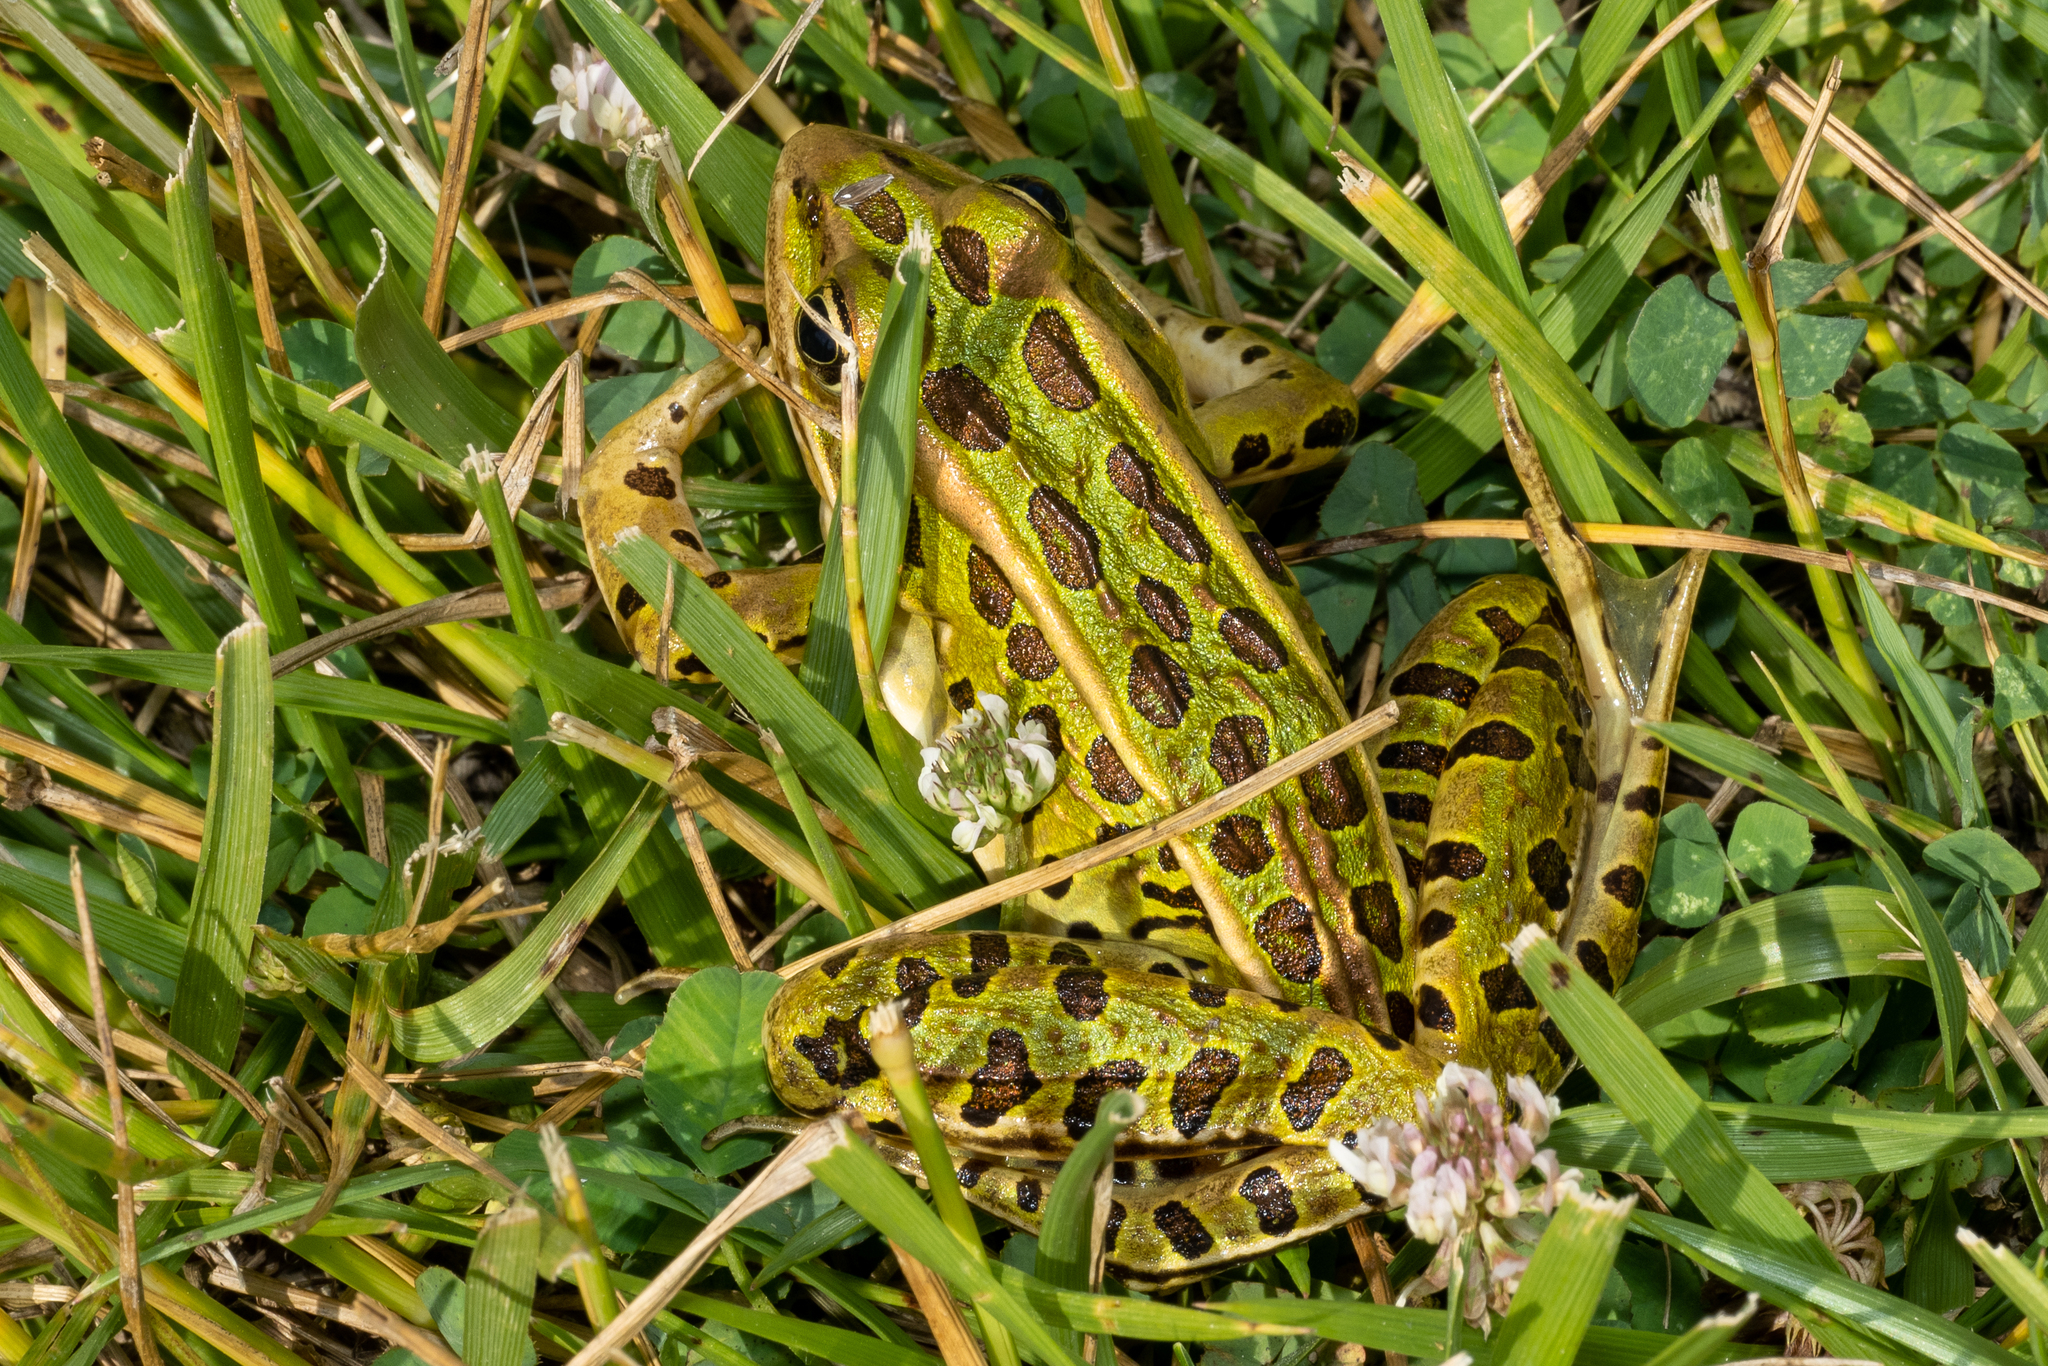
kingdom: Animalia
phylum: Chordata
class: Amphibia
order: Anura
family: Ranidae
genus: Lithobates
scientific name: Lithobates pipiens
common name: Northern leopard frog
